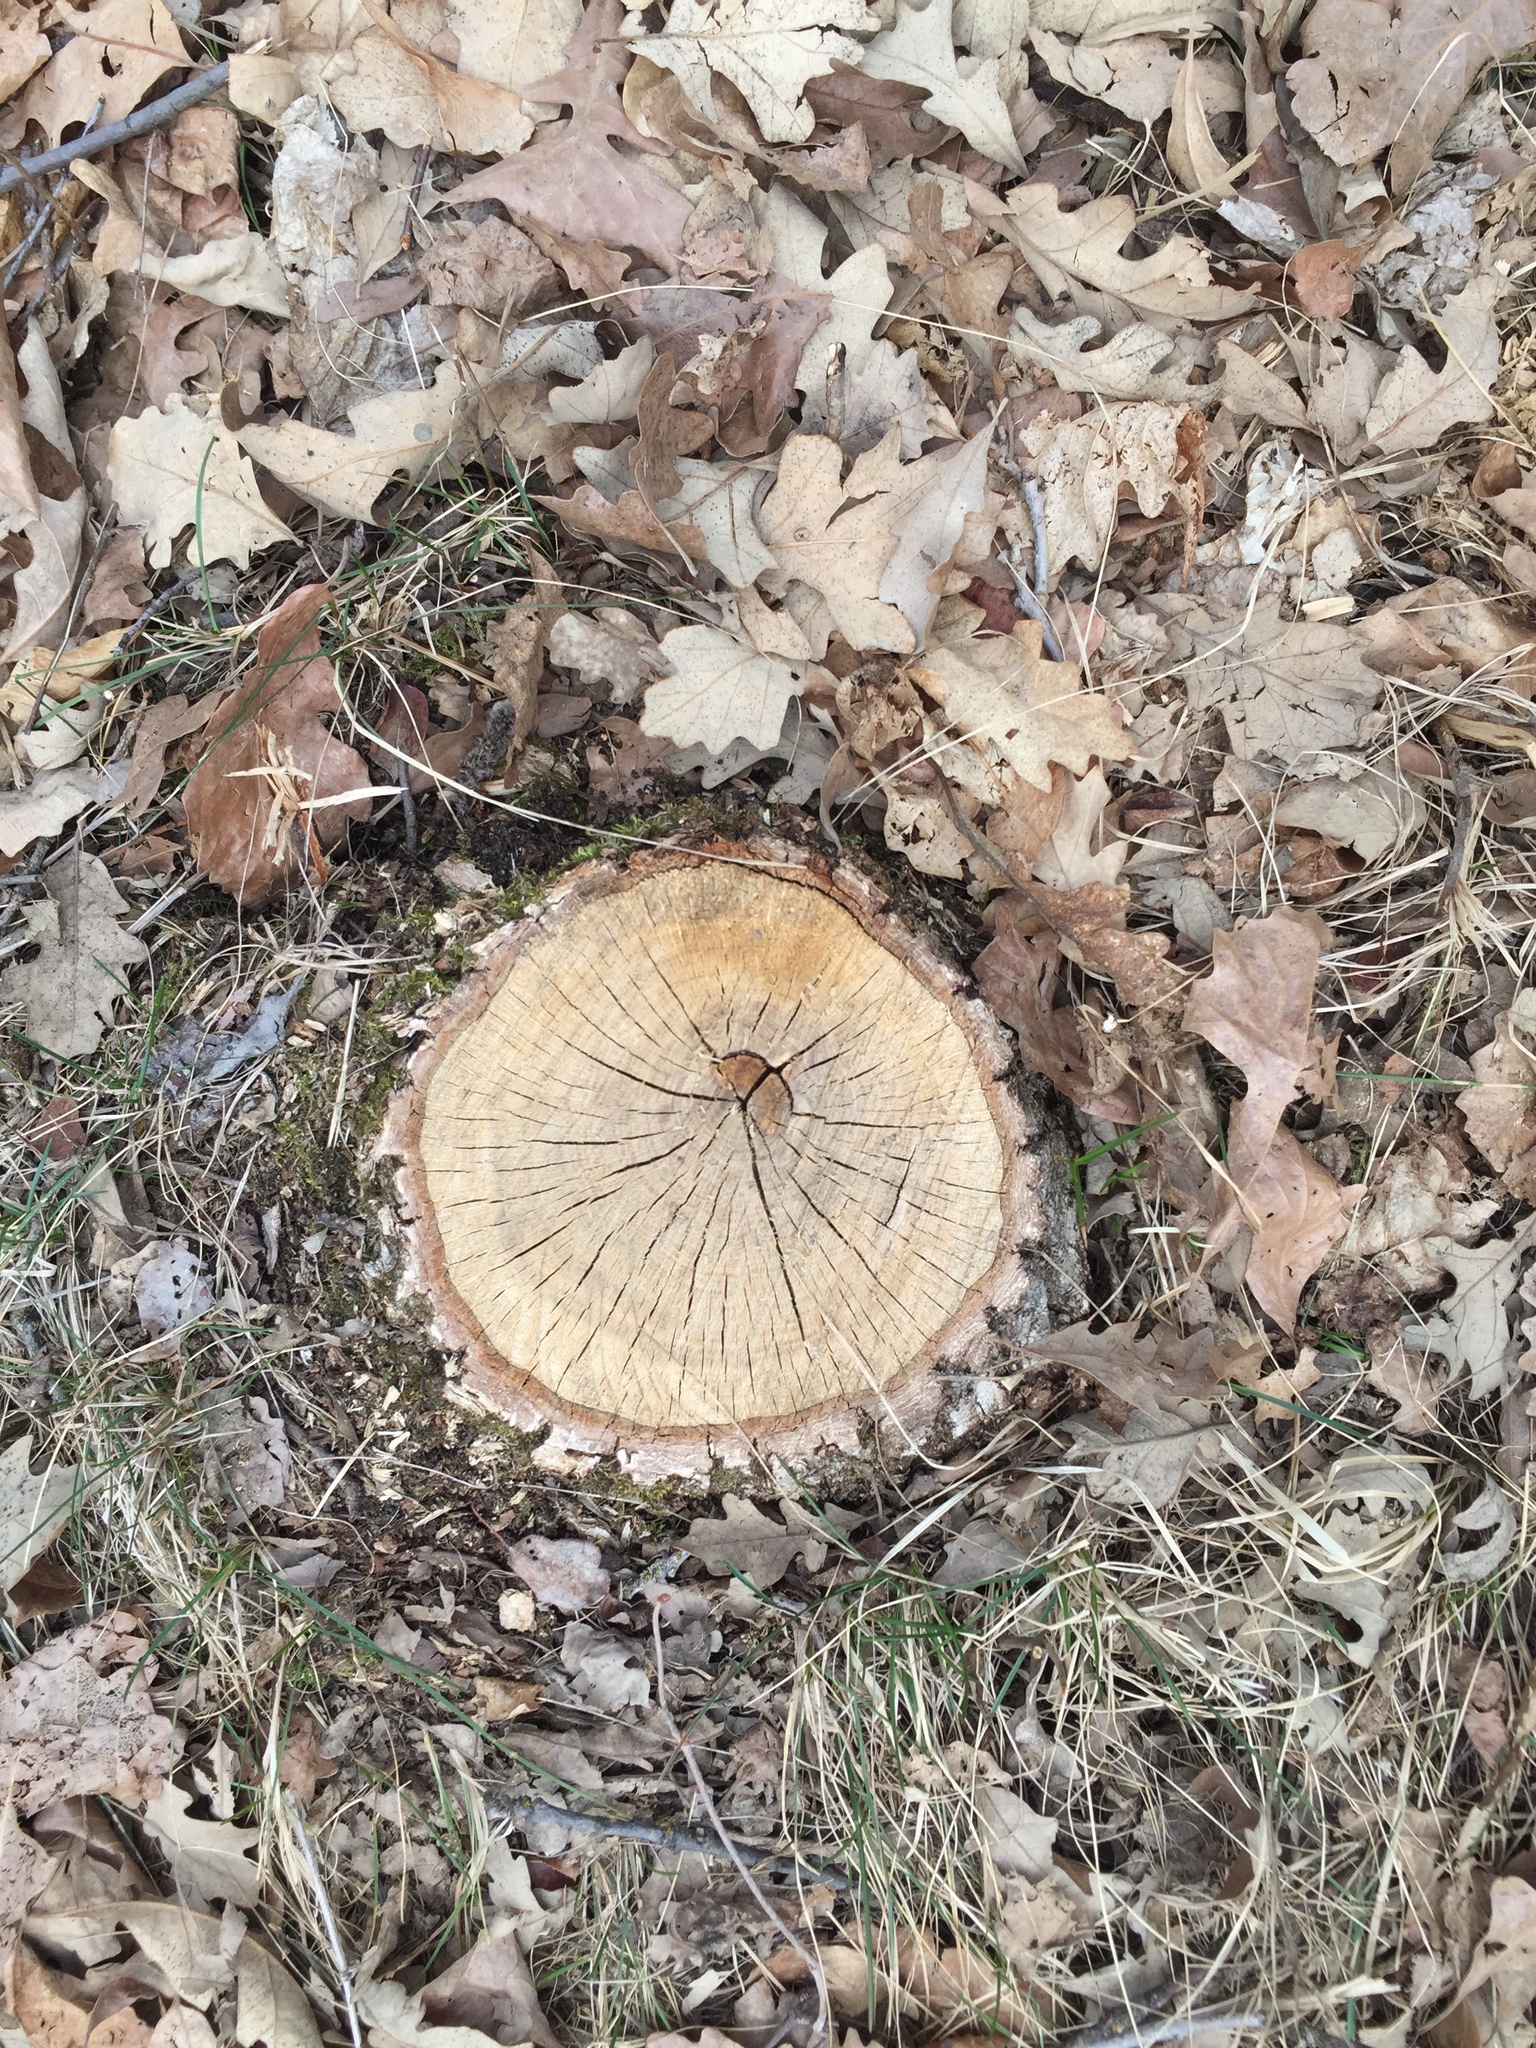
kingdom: Plantae
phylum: Tracheophyta
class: Magnoliopsida
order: Fagales
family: Fagaceae
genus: Quercus
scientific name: Quercus macrocarpa
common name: Bur oak
